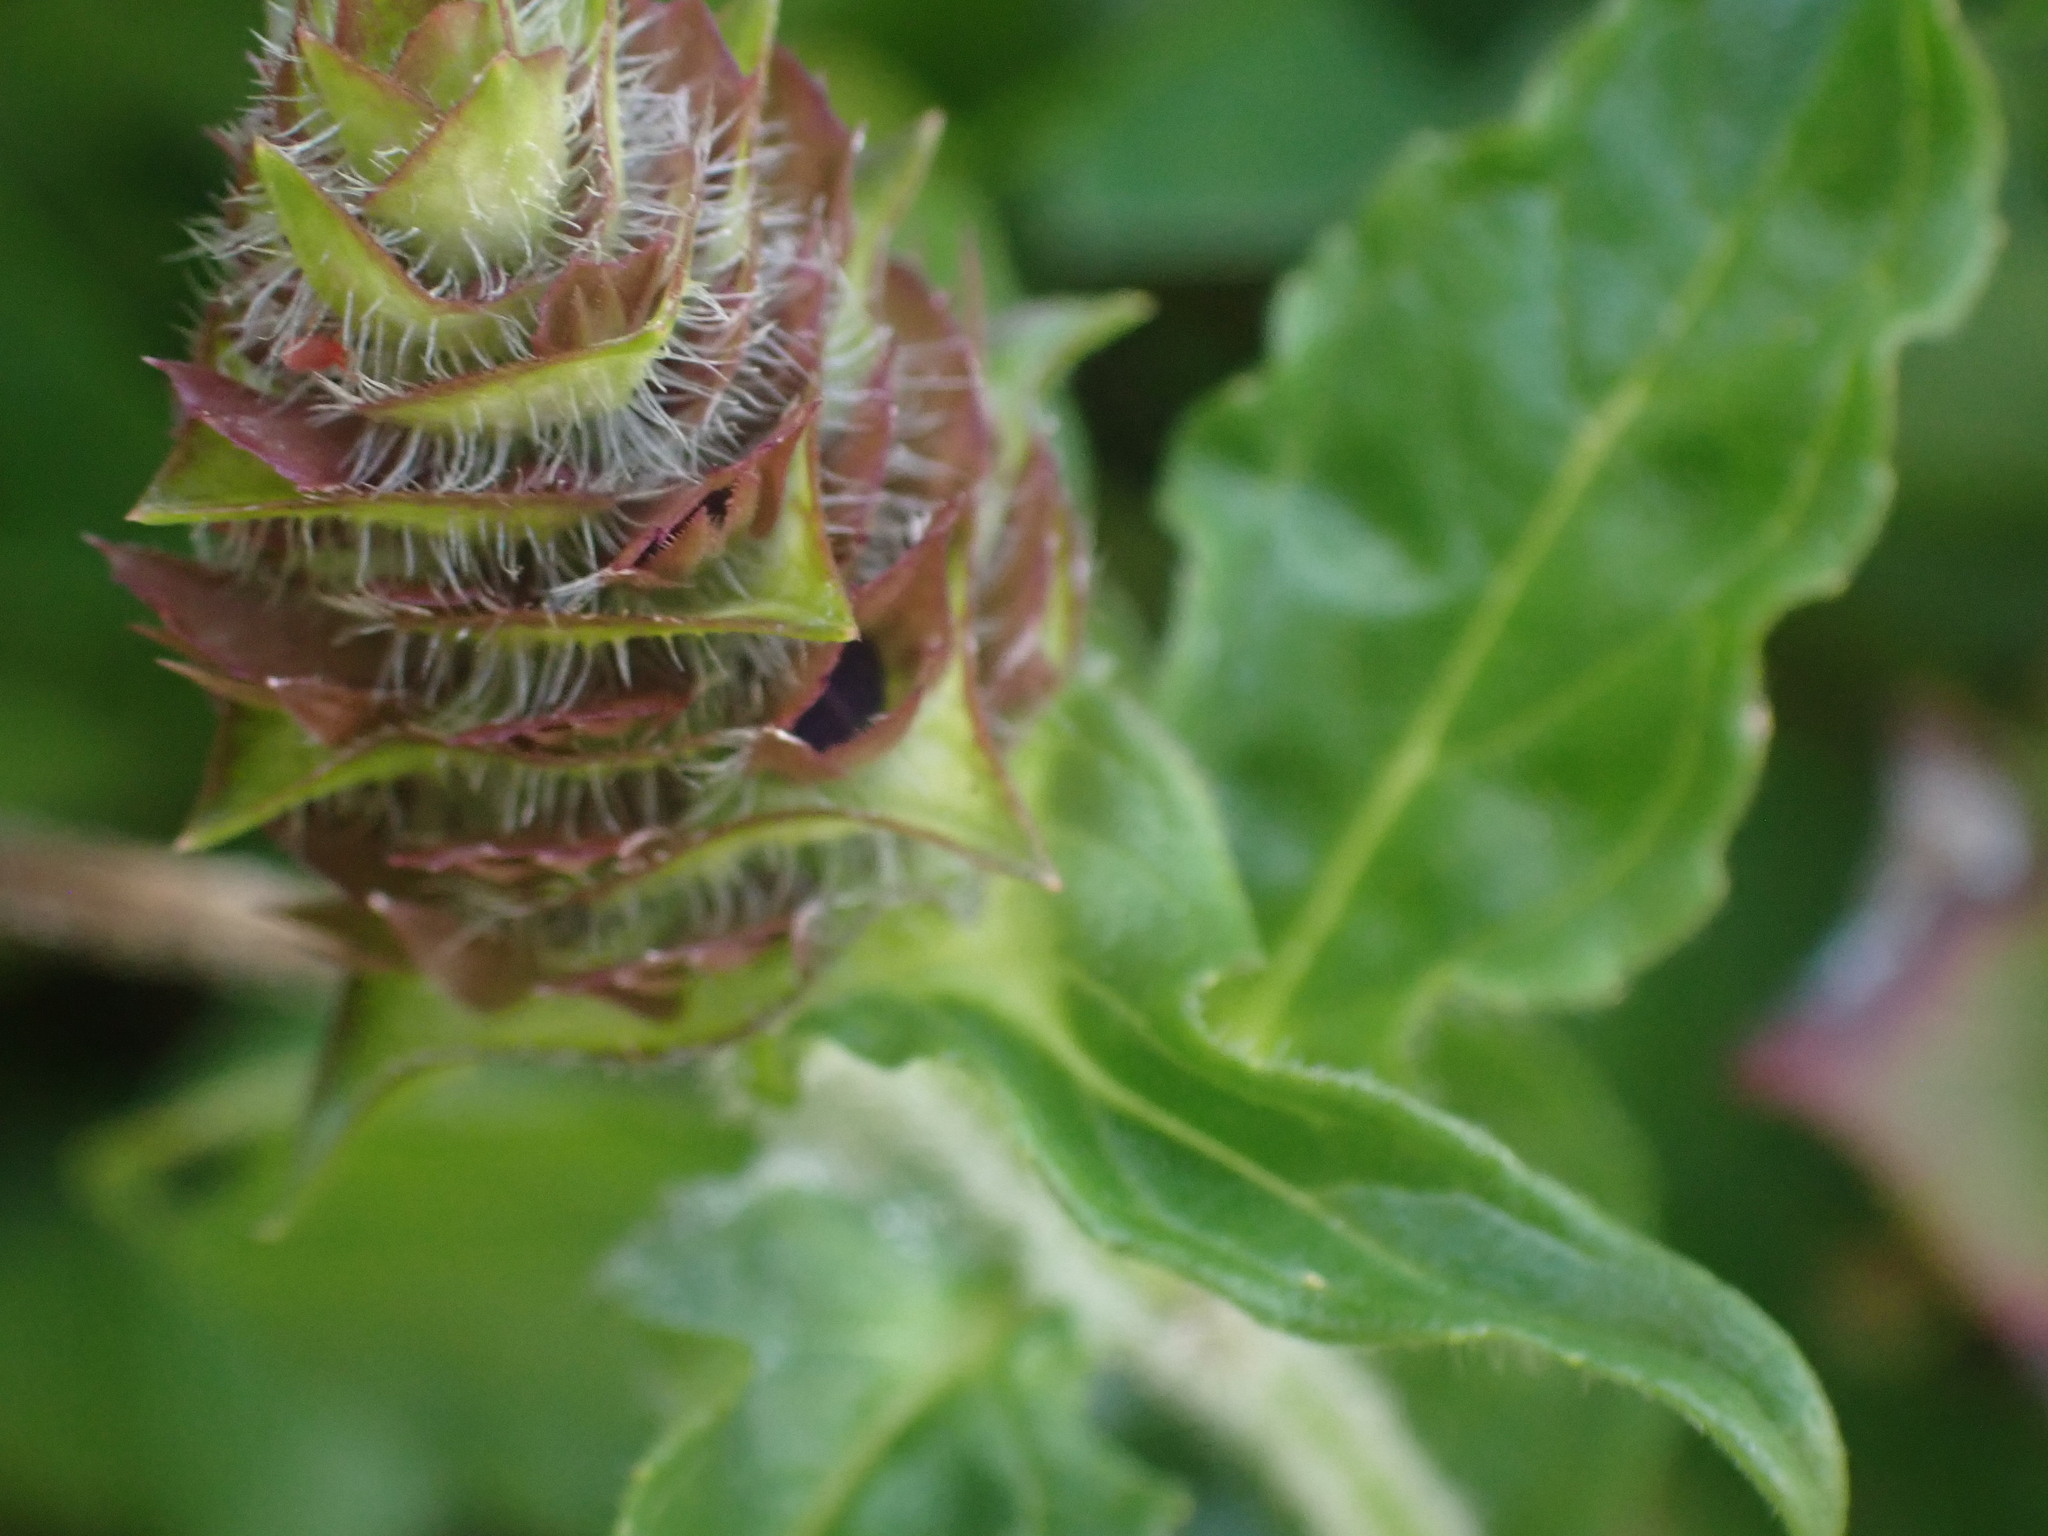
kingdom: Plantae
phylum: Tracheophyta
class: Magnoliopsida
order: Lamiales
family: Lamiaceae
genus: Prunella
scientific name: Prunella vulgaris
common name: Heal-all
